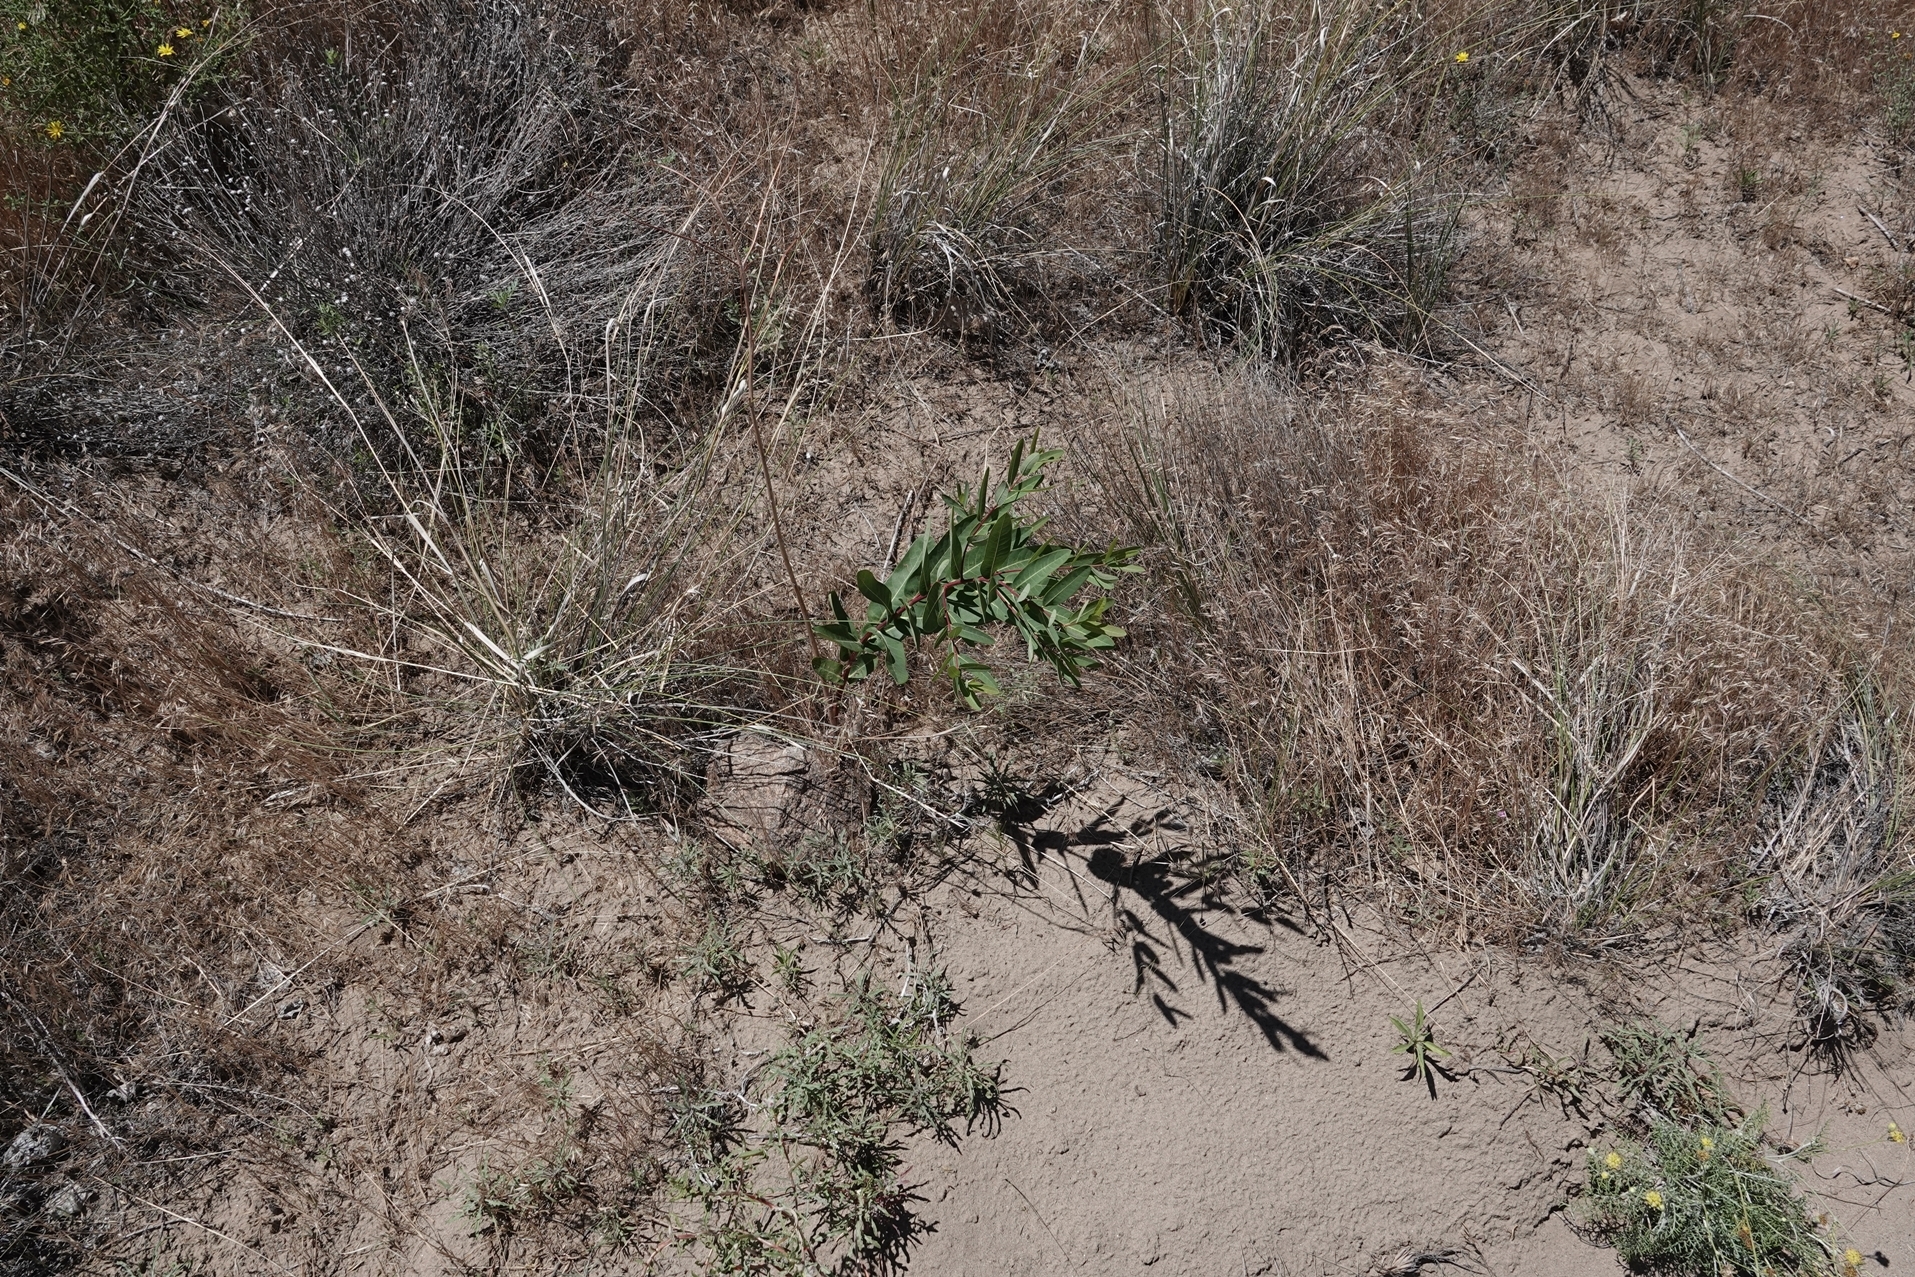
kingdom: Plantae
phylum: Tracheophyta
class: Magnoliopsida
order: Gentianales
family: Apocynaceae
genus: Apocynum
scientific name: Apocynum cannabinum
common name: Hemp dogbane
